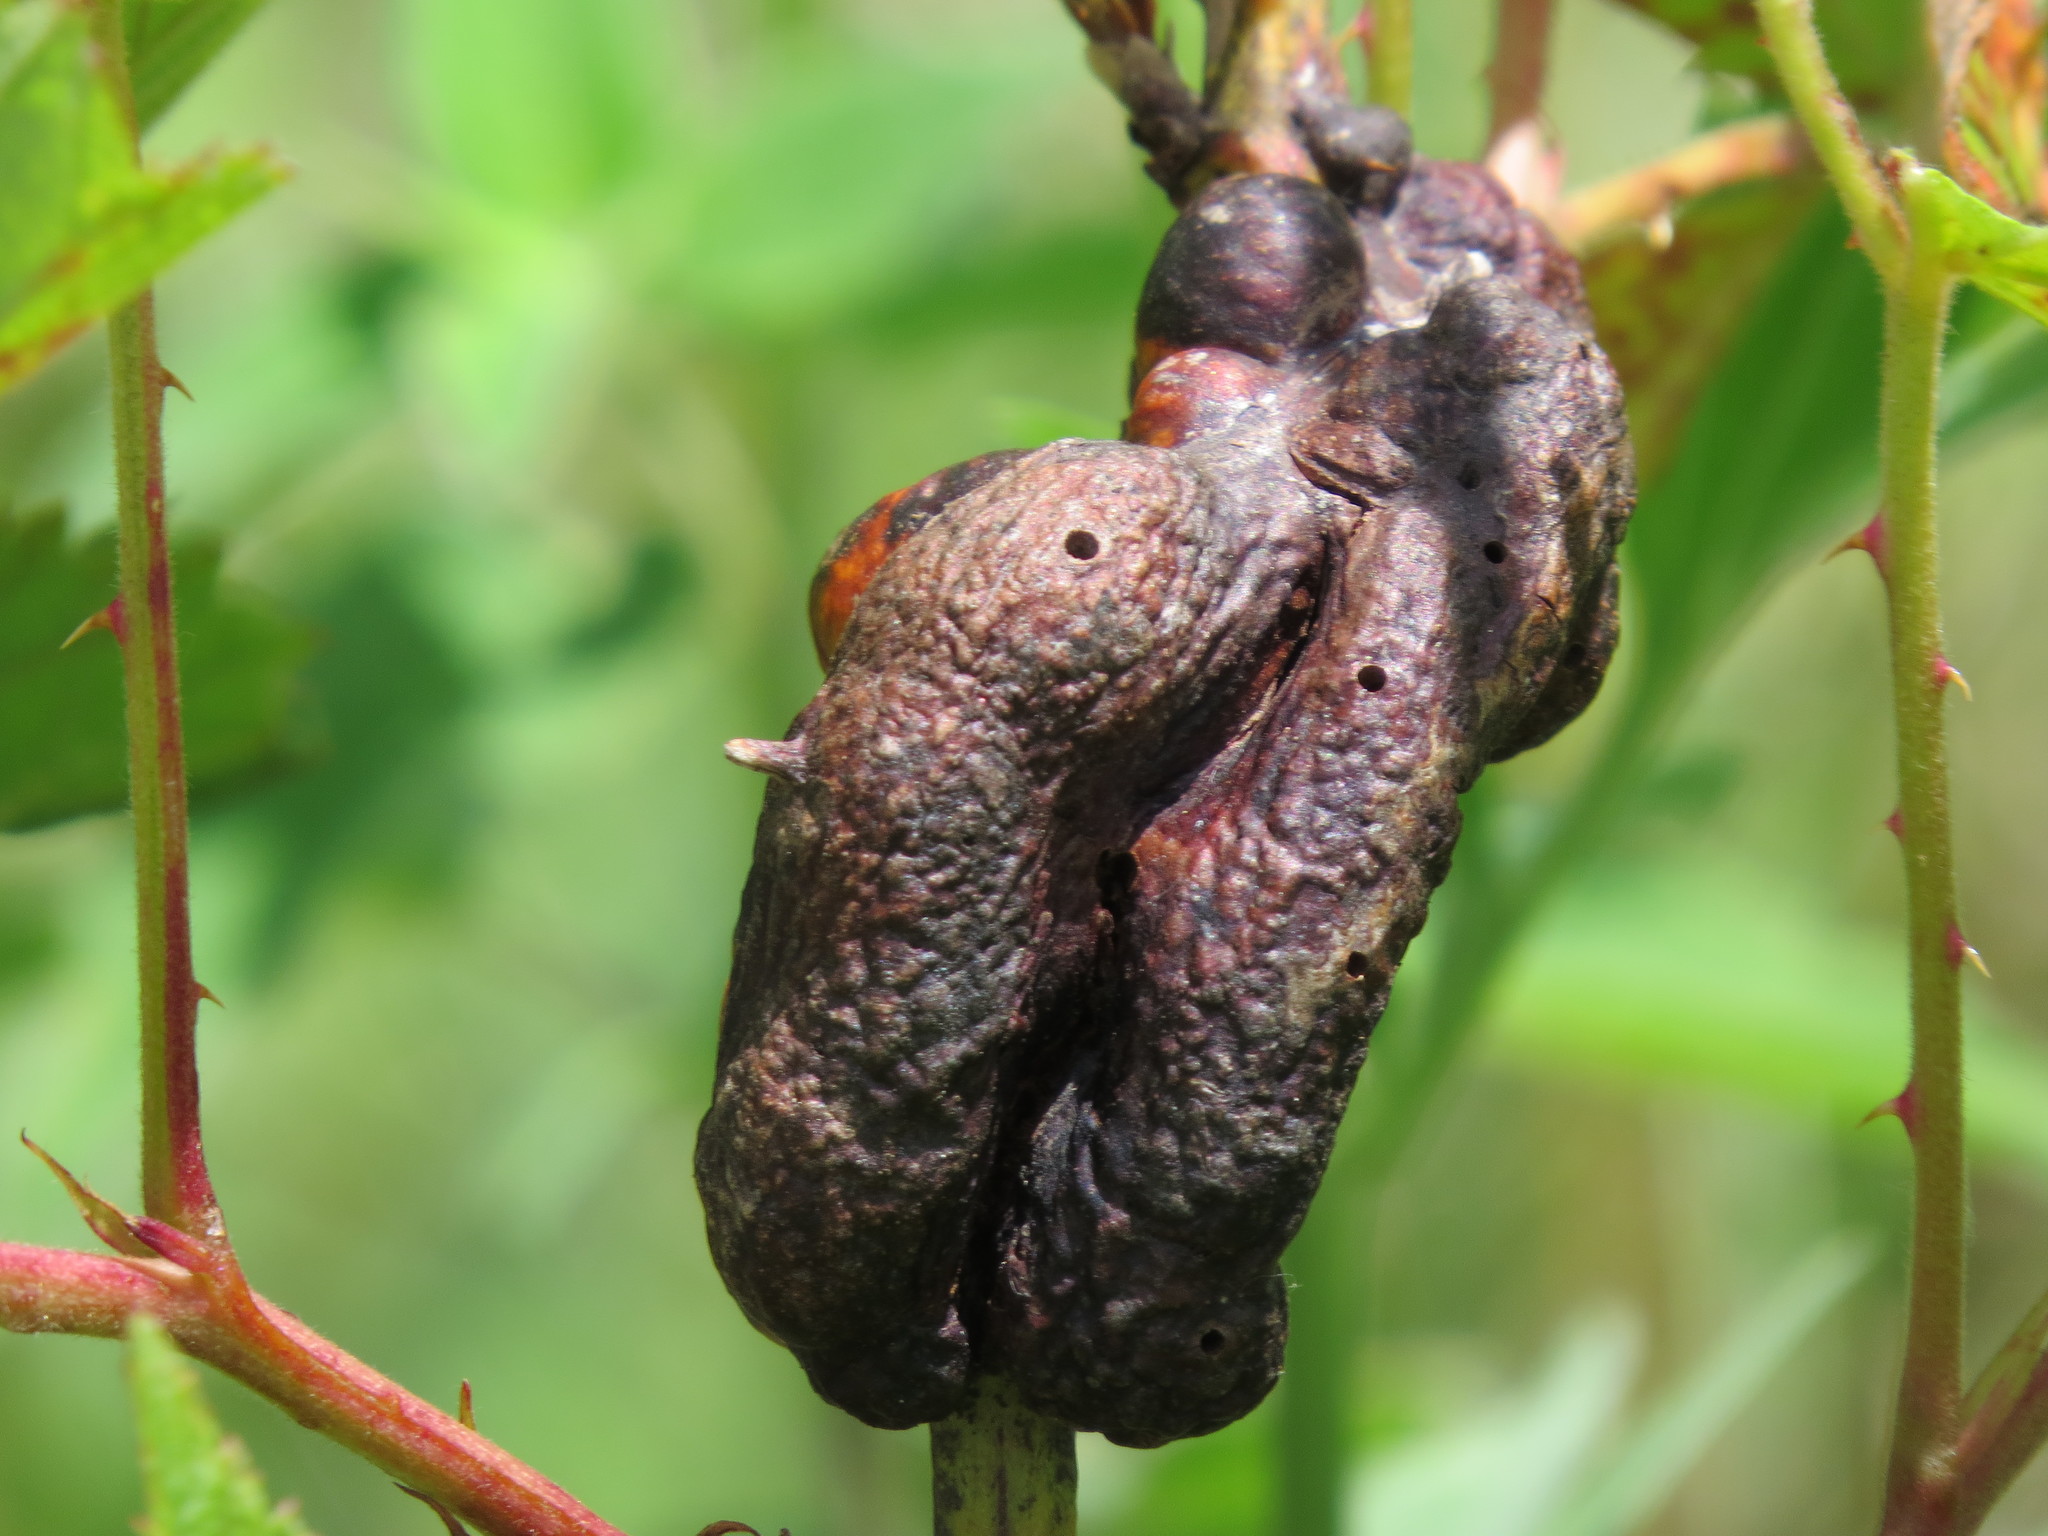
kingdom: Animalia
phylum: Arthropoda
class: Insecta
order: Hymenoptera
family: Cynipidae
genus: Diastrophus
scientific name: Diastrophus
